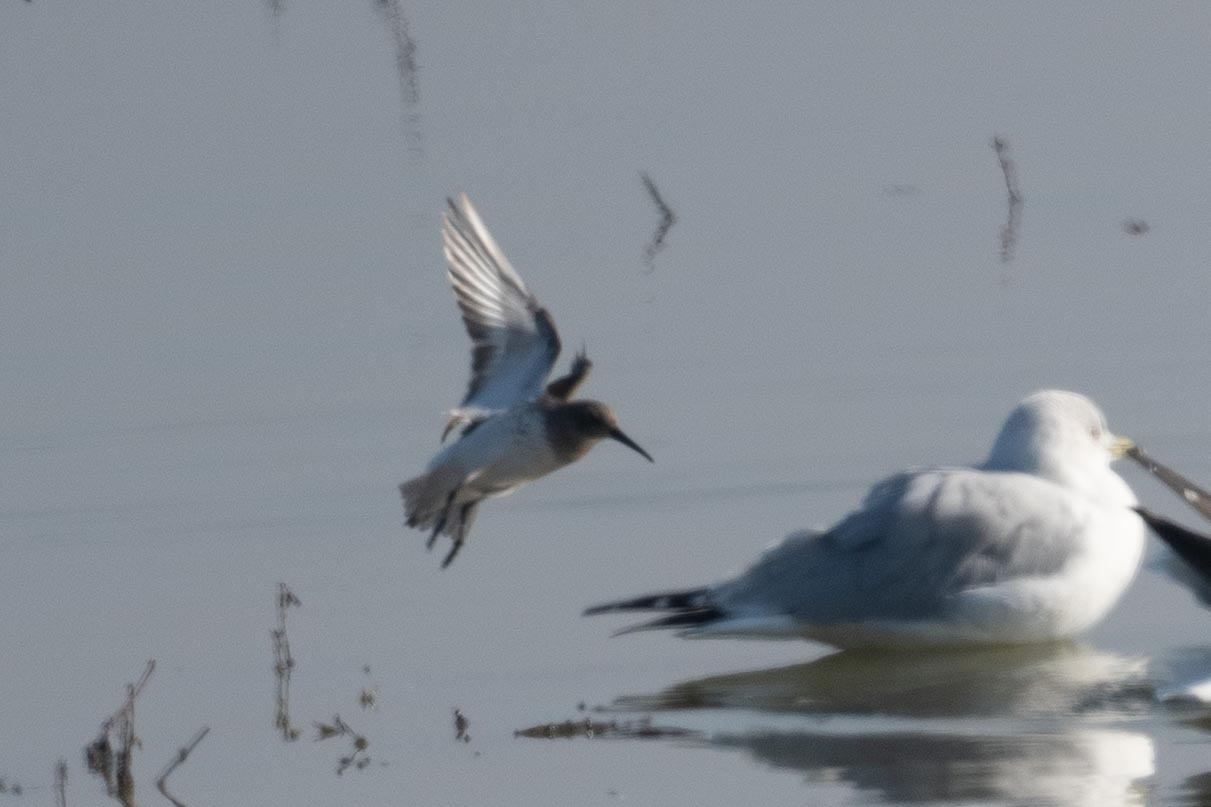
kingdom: Animalia
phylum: Chordata
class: Aves
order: Charadriiformes
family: Scolopacidae
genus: Calidris
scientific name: Calidris alpina
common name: Dunlin
